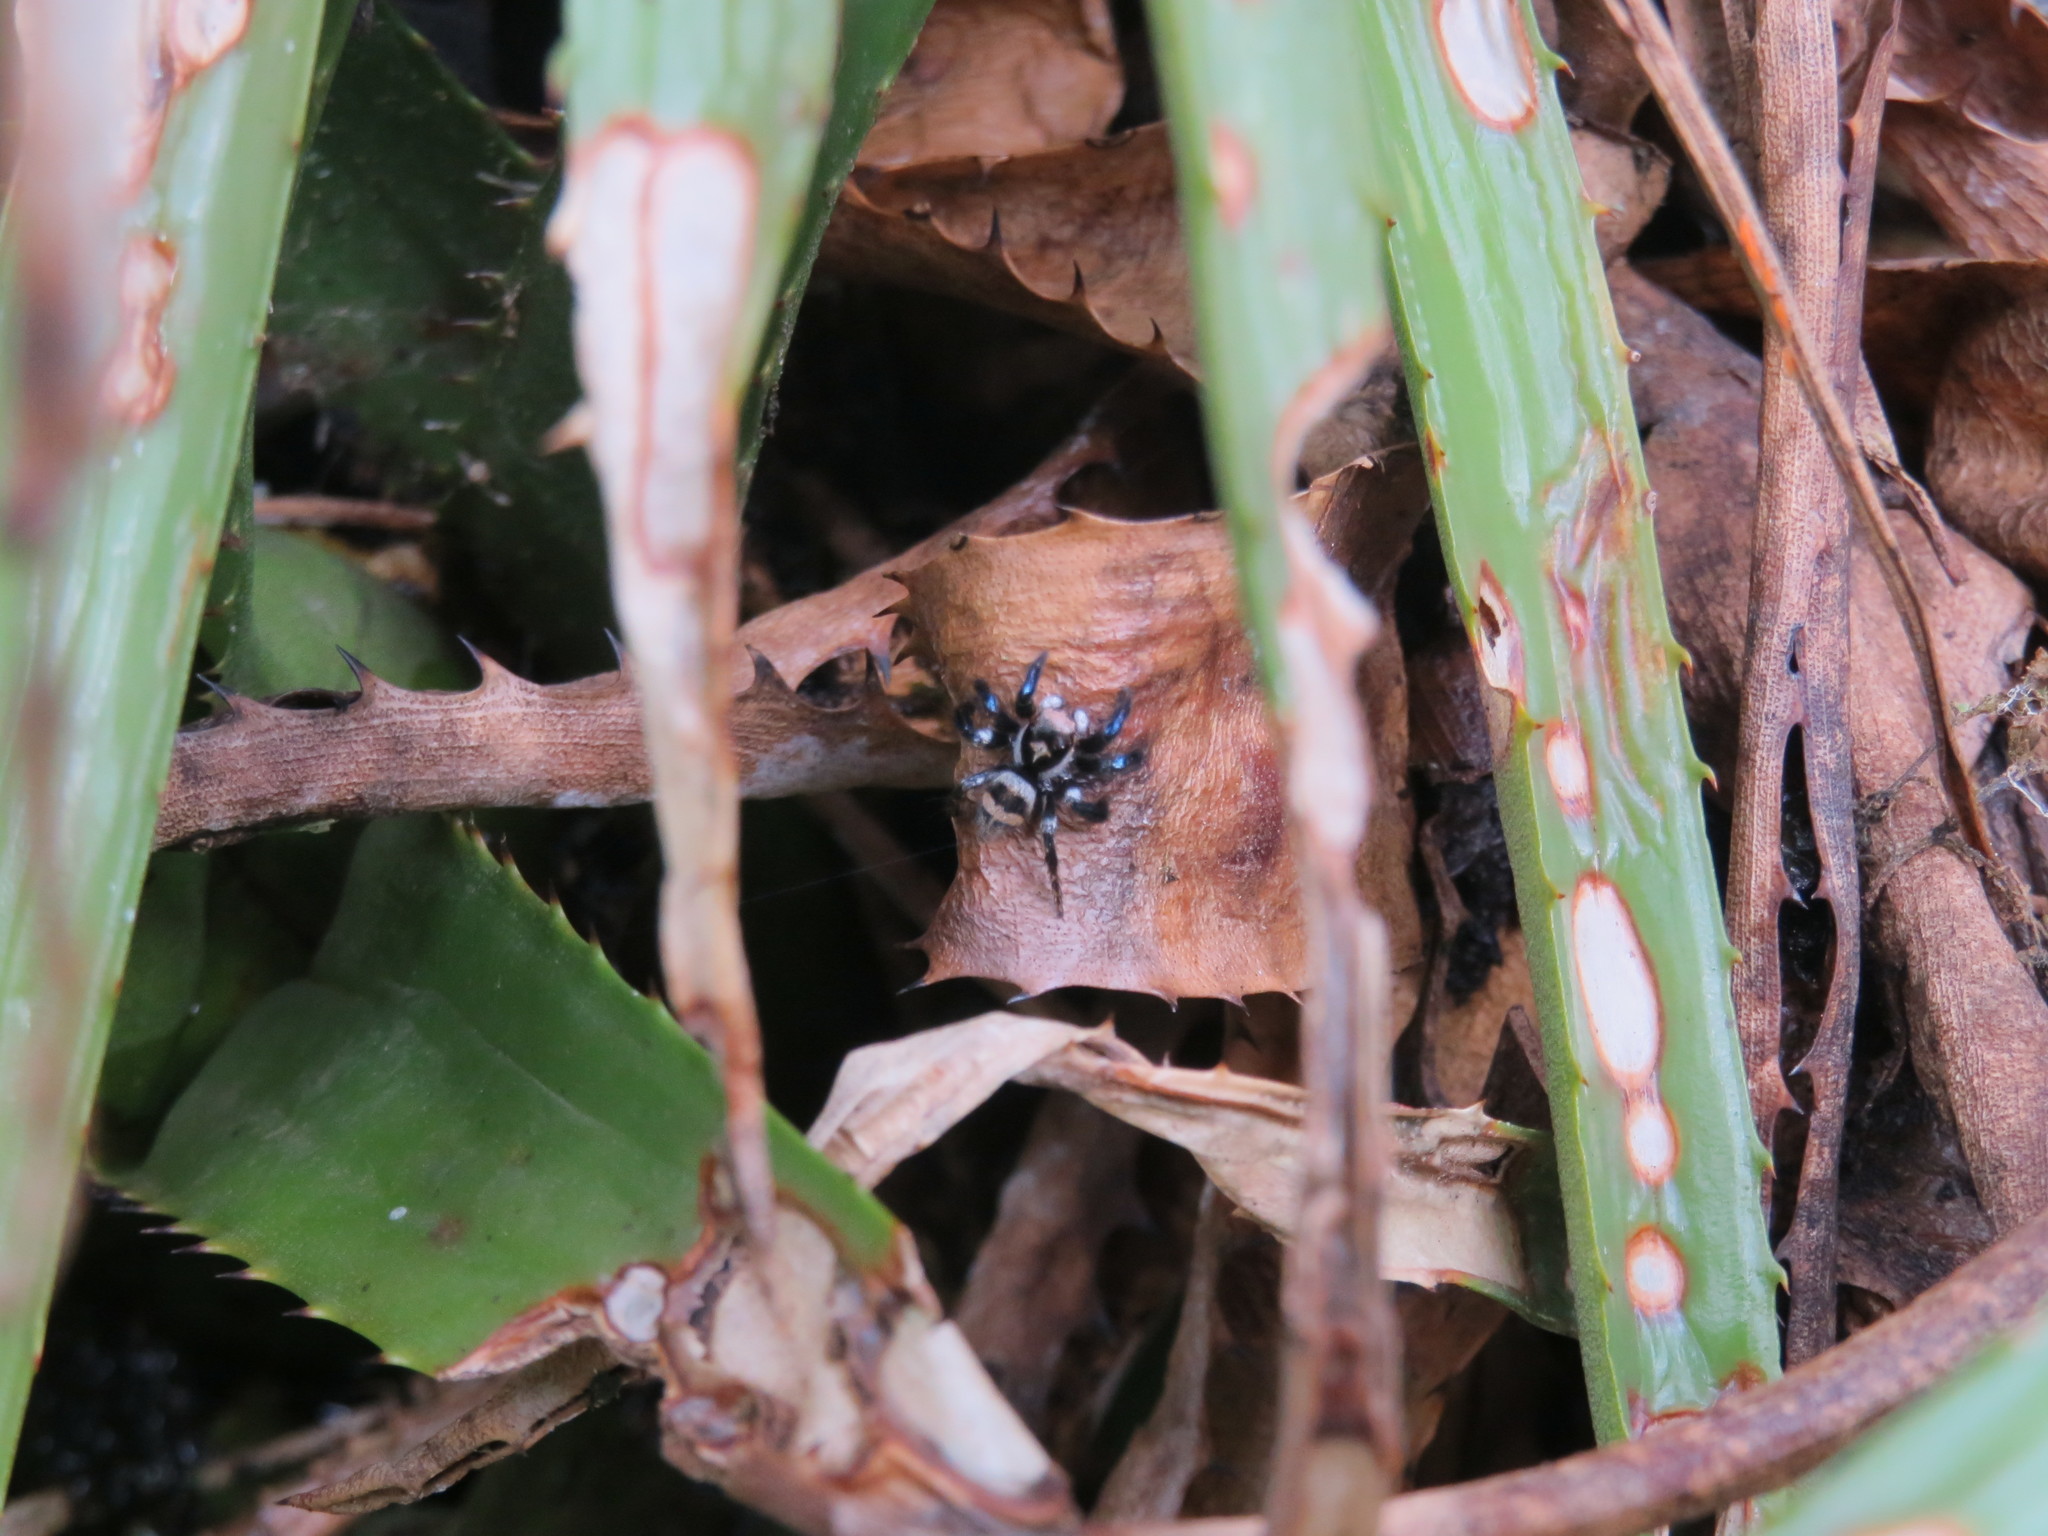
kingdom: Animalia
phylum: Arthropoda
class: Arachnida
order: Araneae
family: Salticidae
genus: Corythalia
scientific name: Corythalia argentinensis
